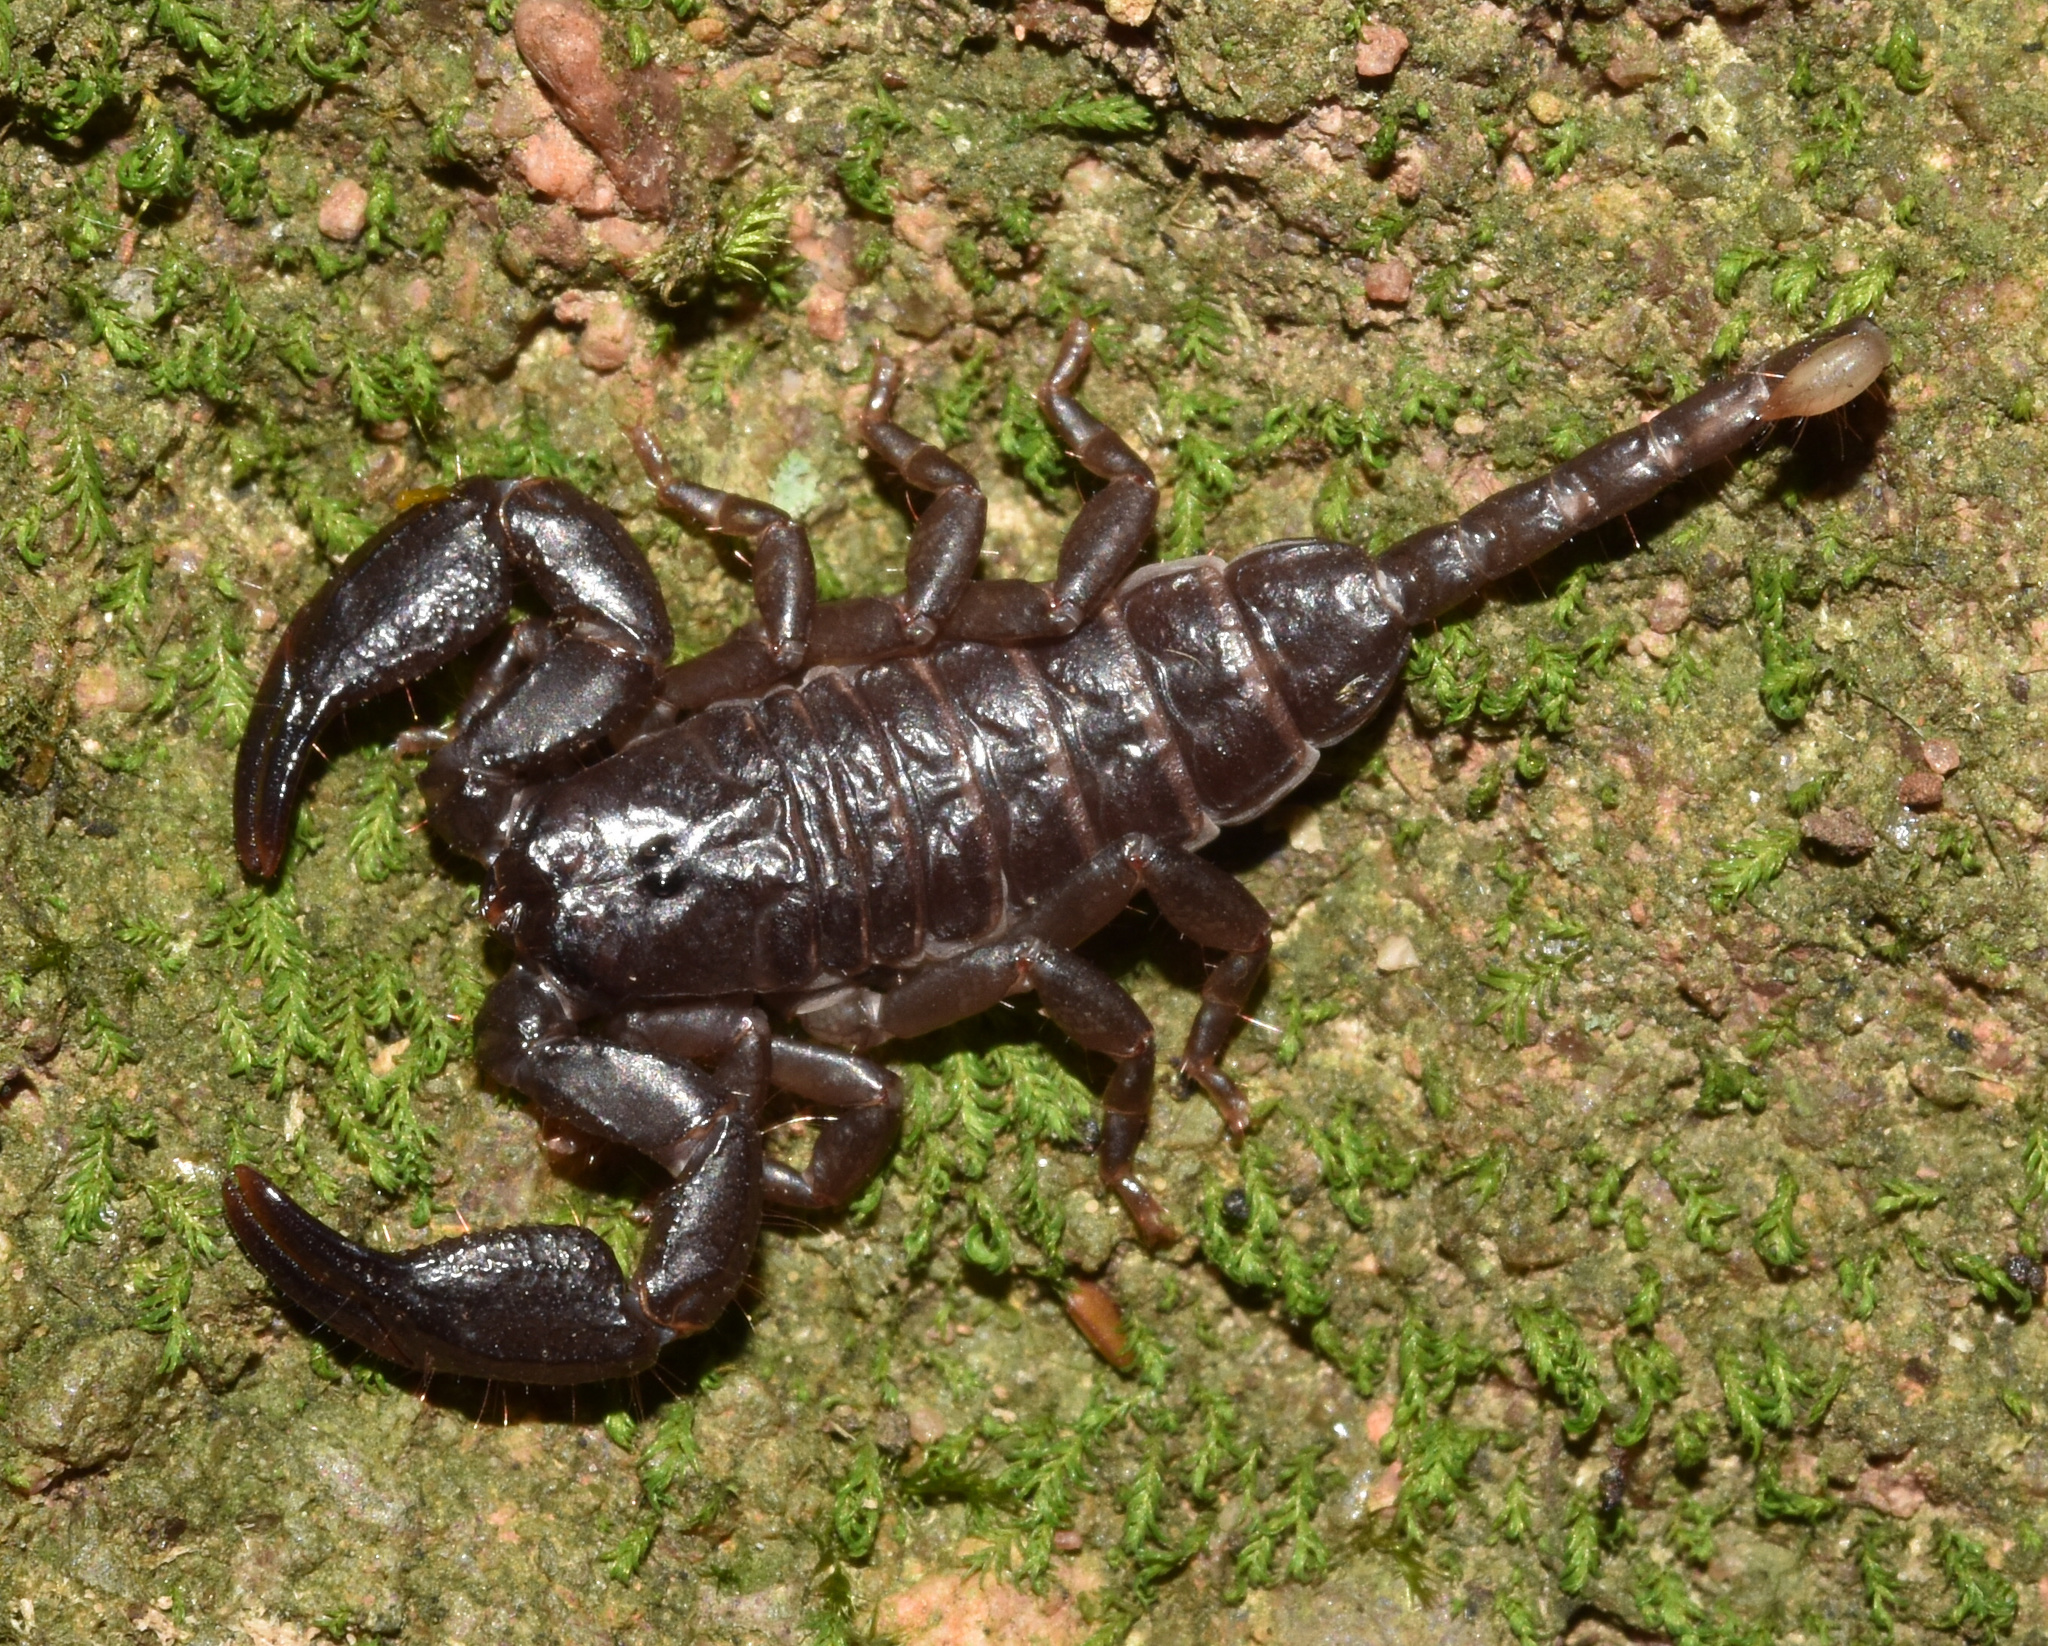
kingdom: Animalia
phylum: Arthropoda
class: Arachnida
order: Scorpiones
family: Hormuridae
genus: Opisthacanthus
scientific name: Opisthacanthus validus
